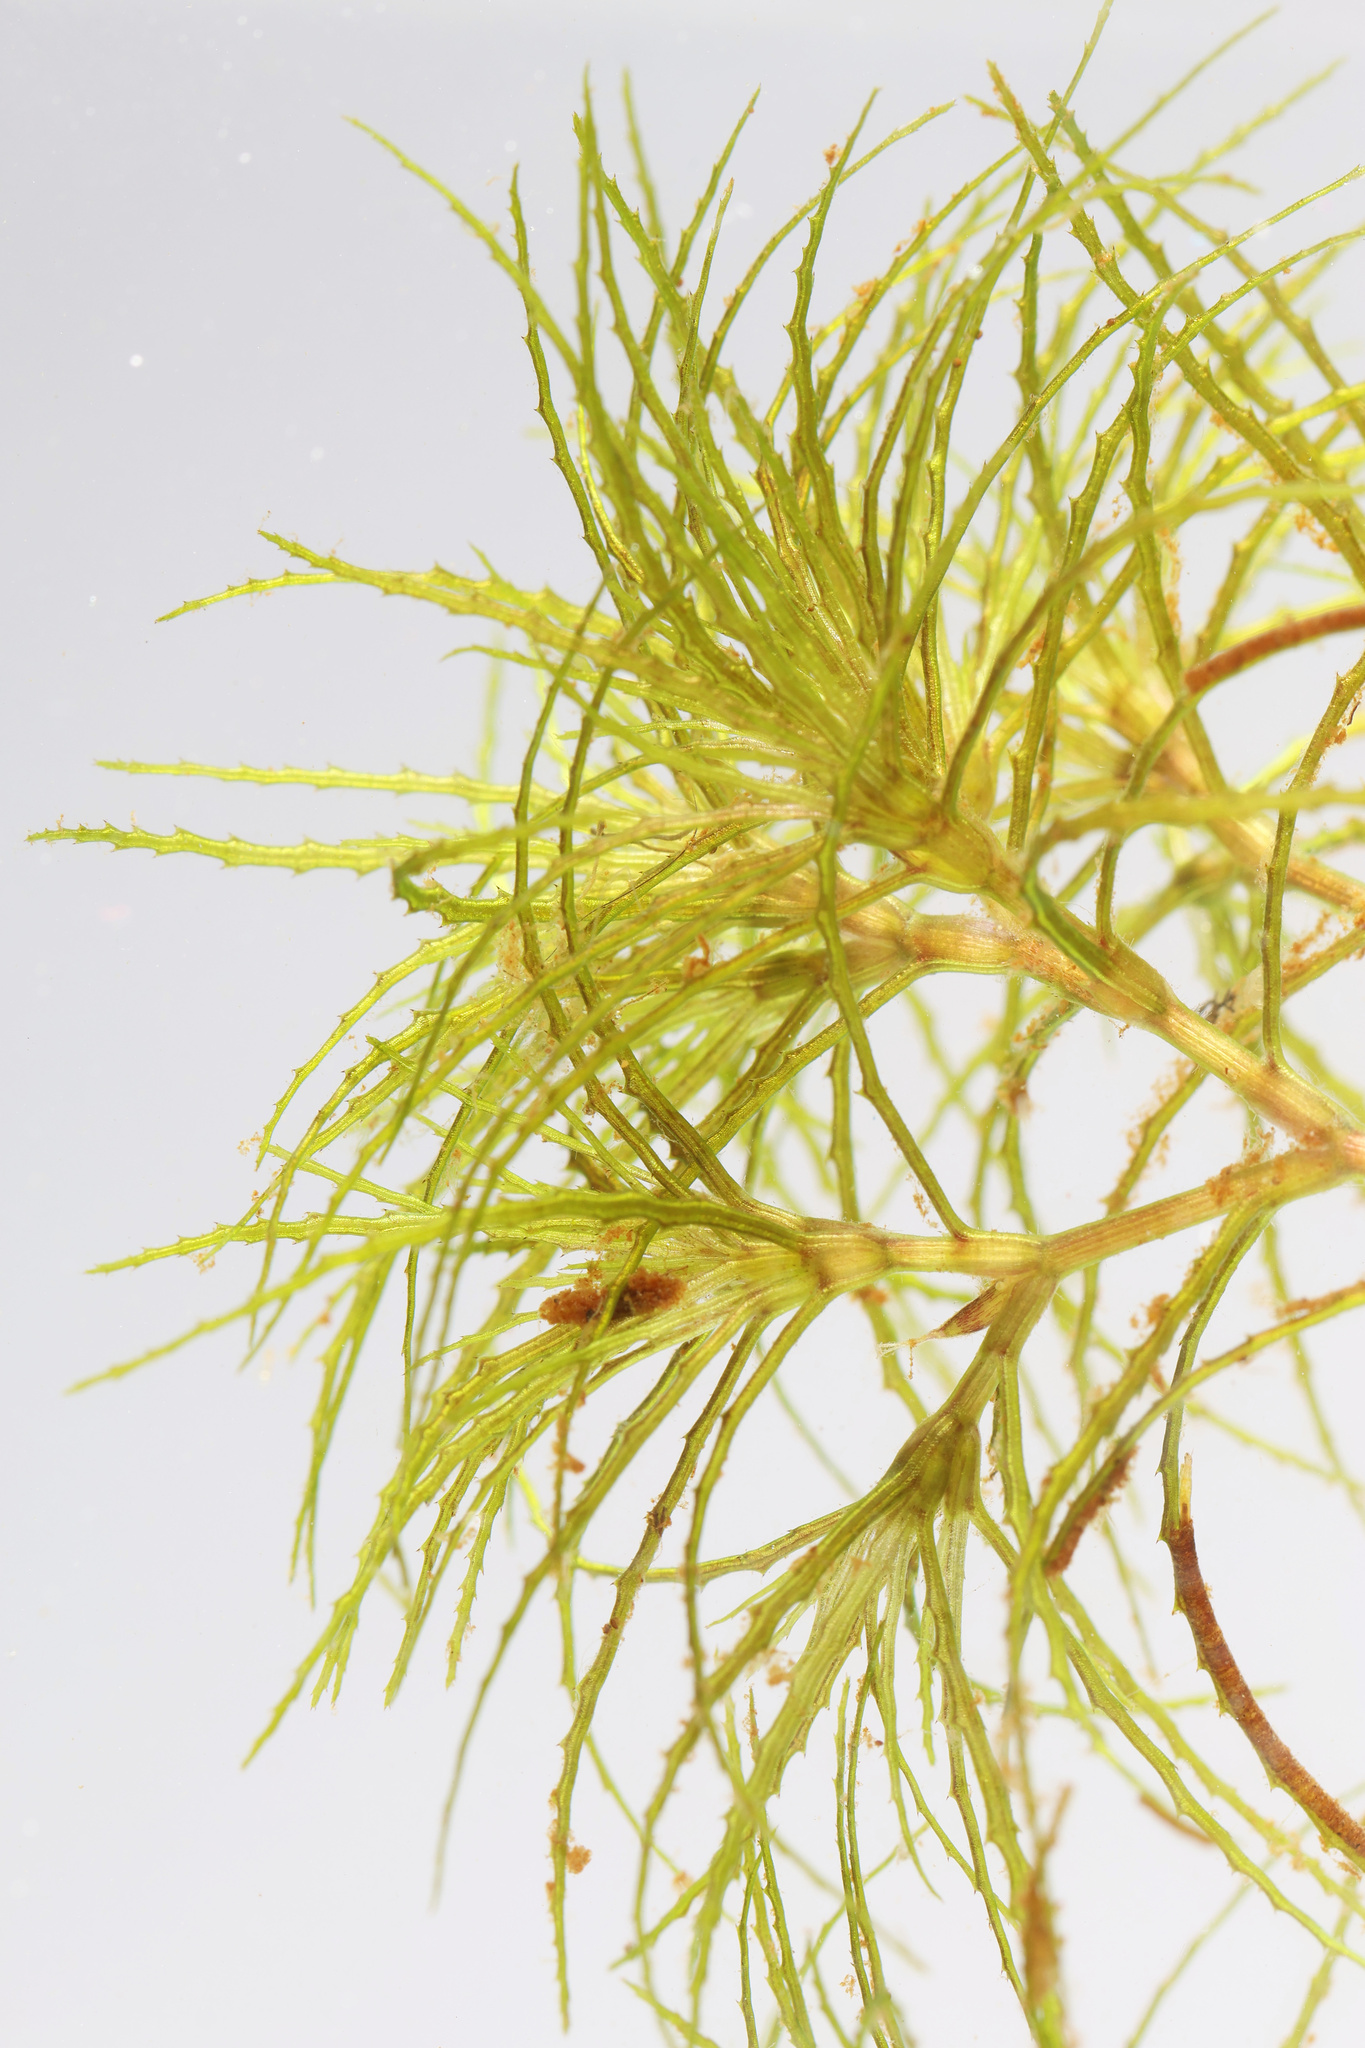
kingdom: Plantae
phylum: Tracheophyta
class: Liliopsida
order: Alismatales
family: Hydrocharitaceae
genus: Najas
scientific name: Najas minor
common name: Brittle naiad
